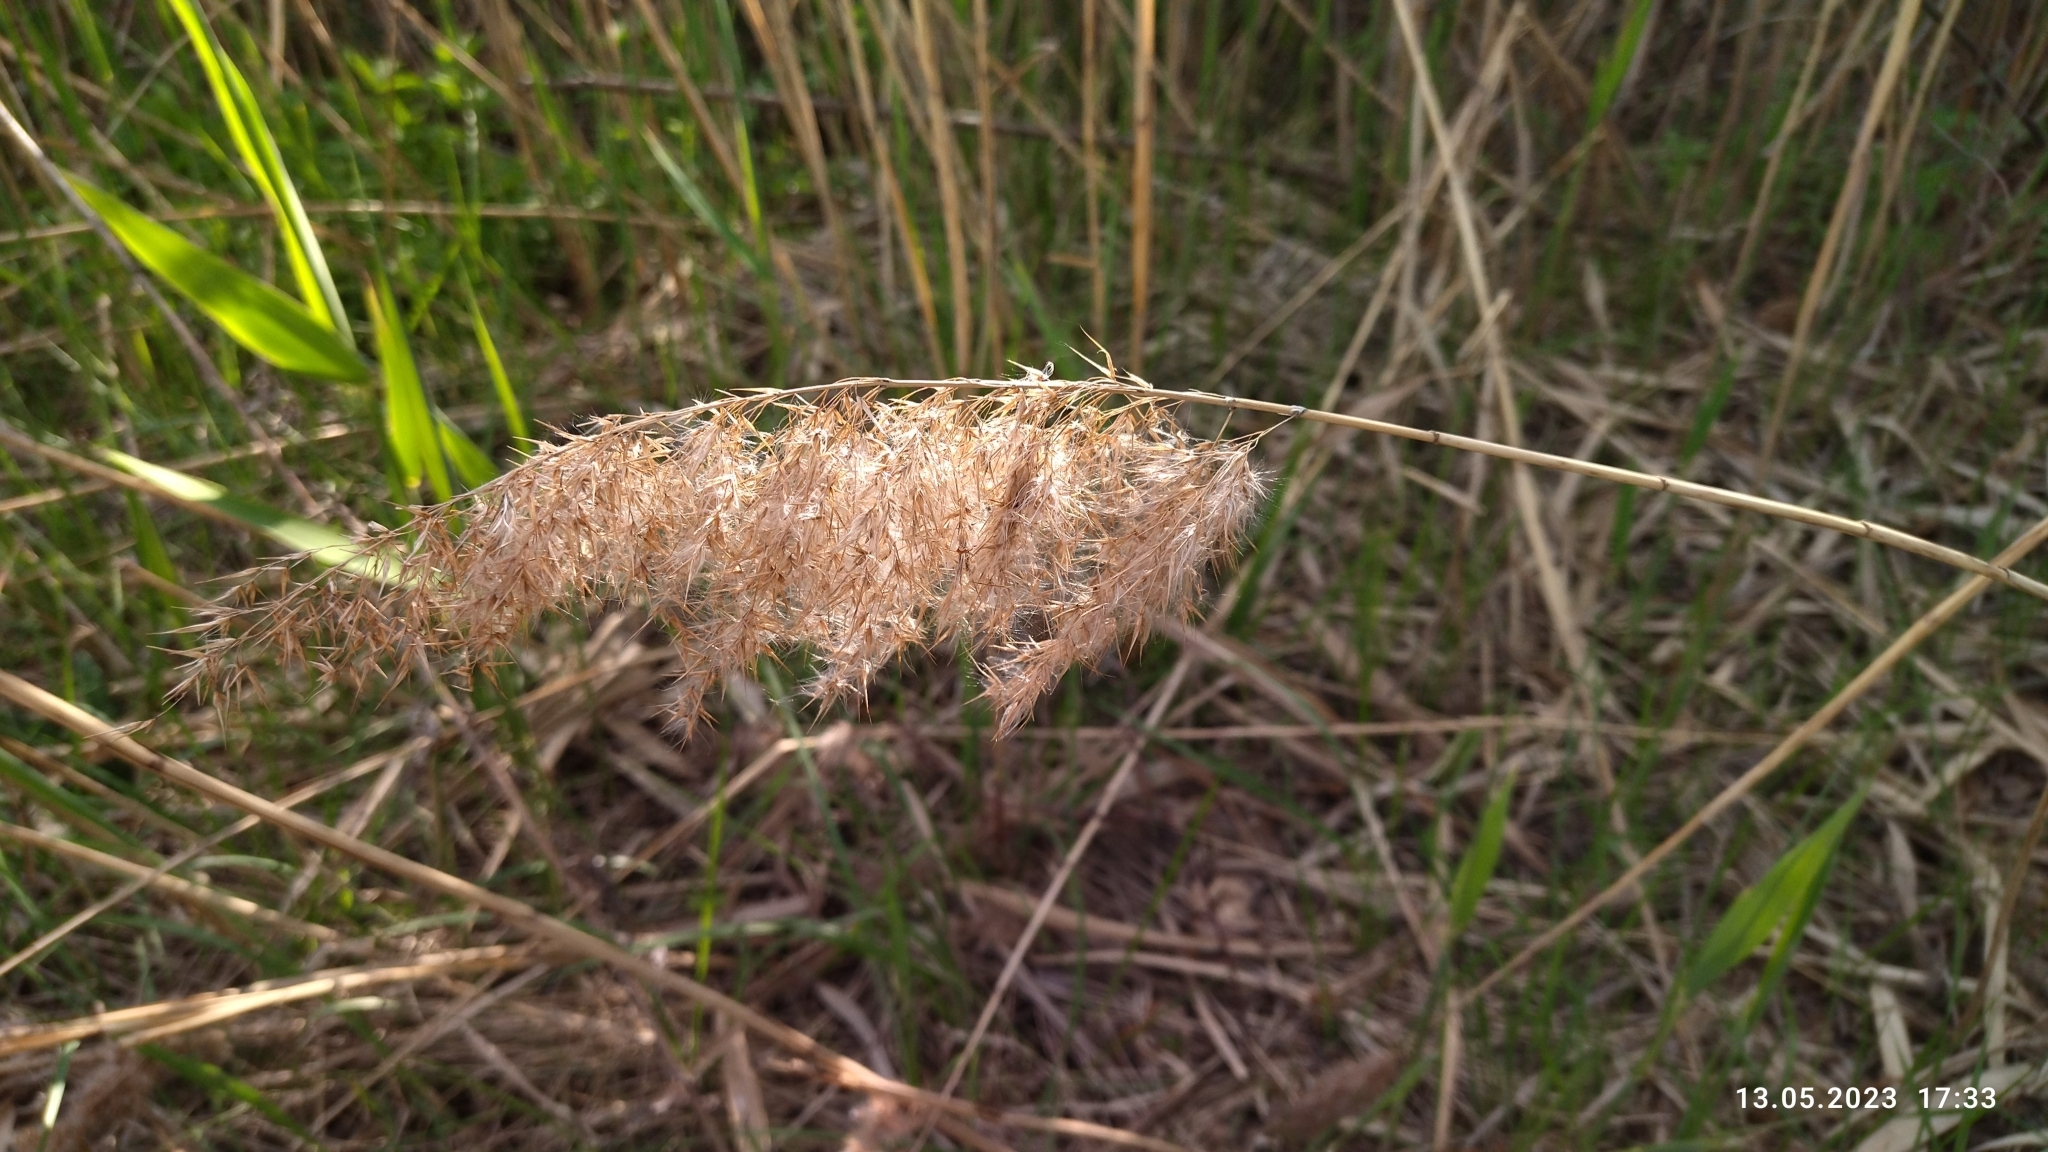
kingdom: Plantae
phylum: Tracheophyta
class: Liliopsida
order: Poales
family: Poaceae
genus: Phragmites
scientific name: Phragmites australis
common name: Common reed
